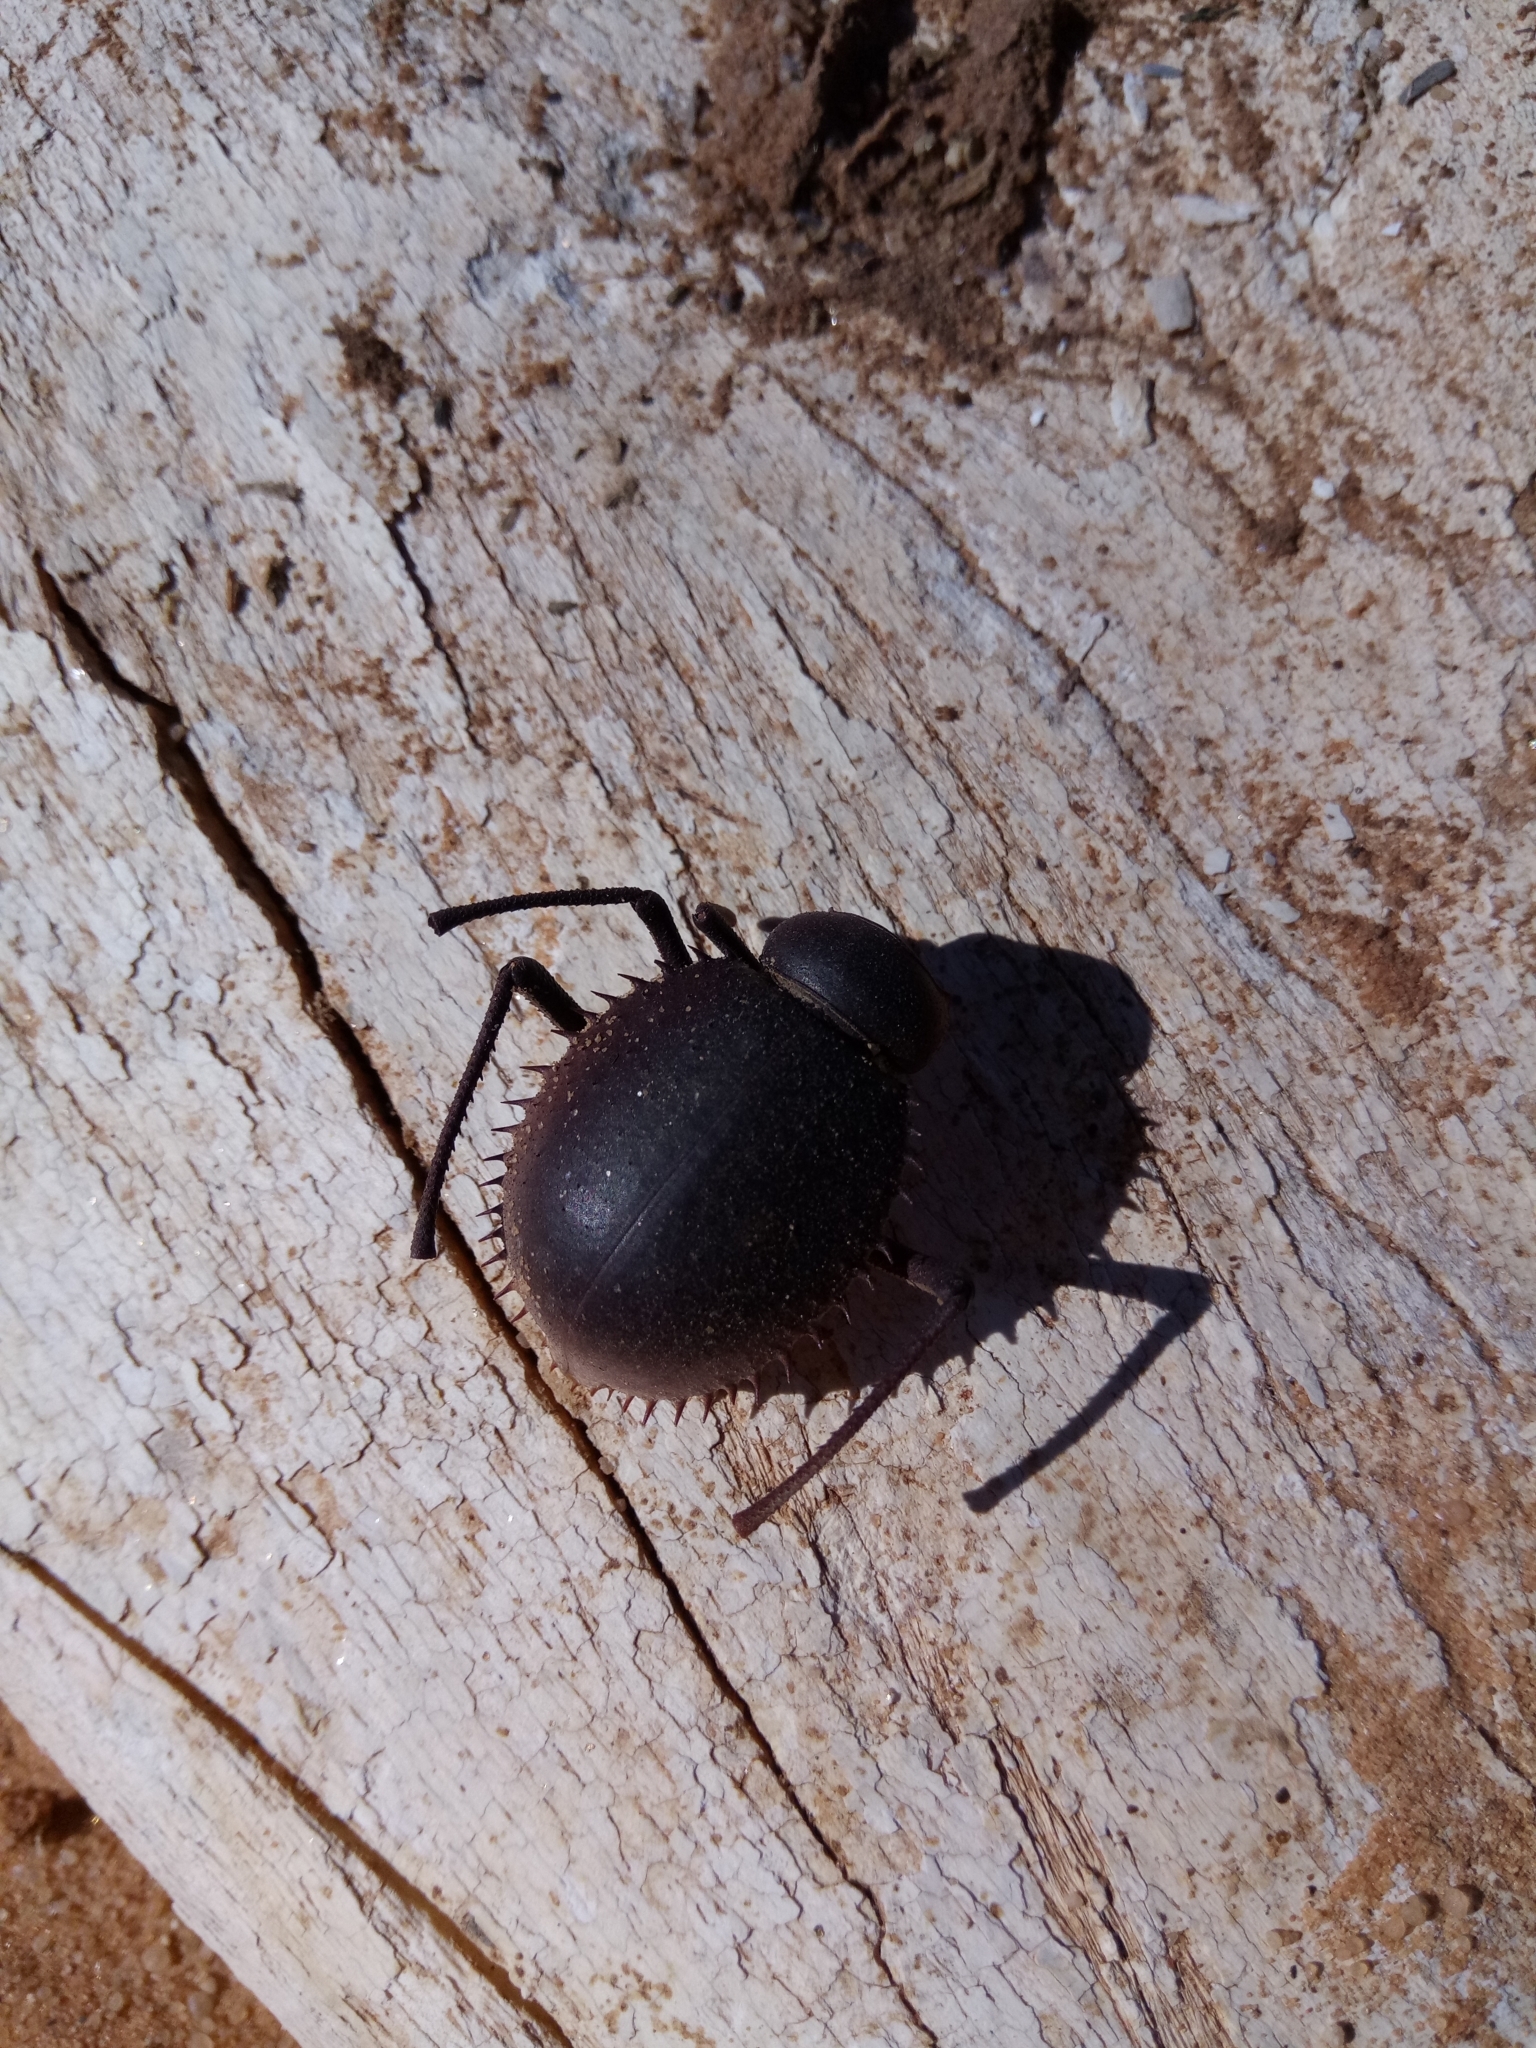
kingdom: Animalia
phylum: Arthropoda
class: Insecta
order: Coleoptera
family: Tenebrionidae
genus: Prionotheca
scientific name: Prionotheca coronata
